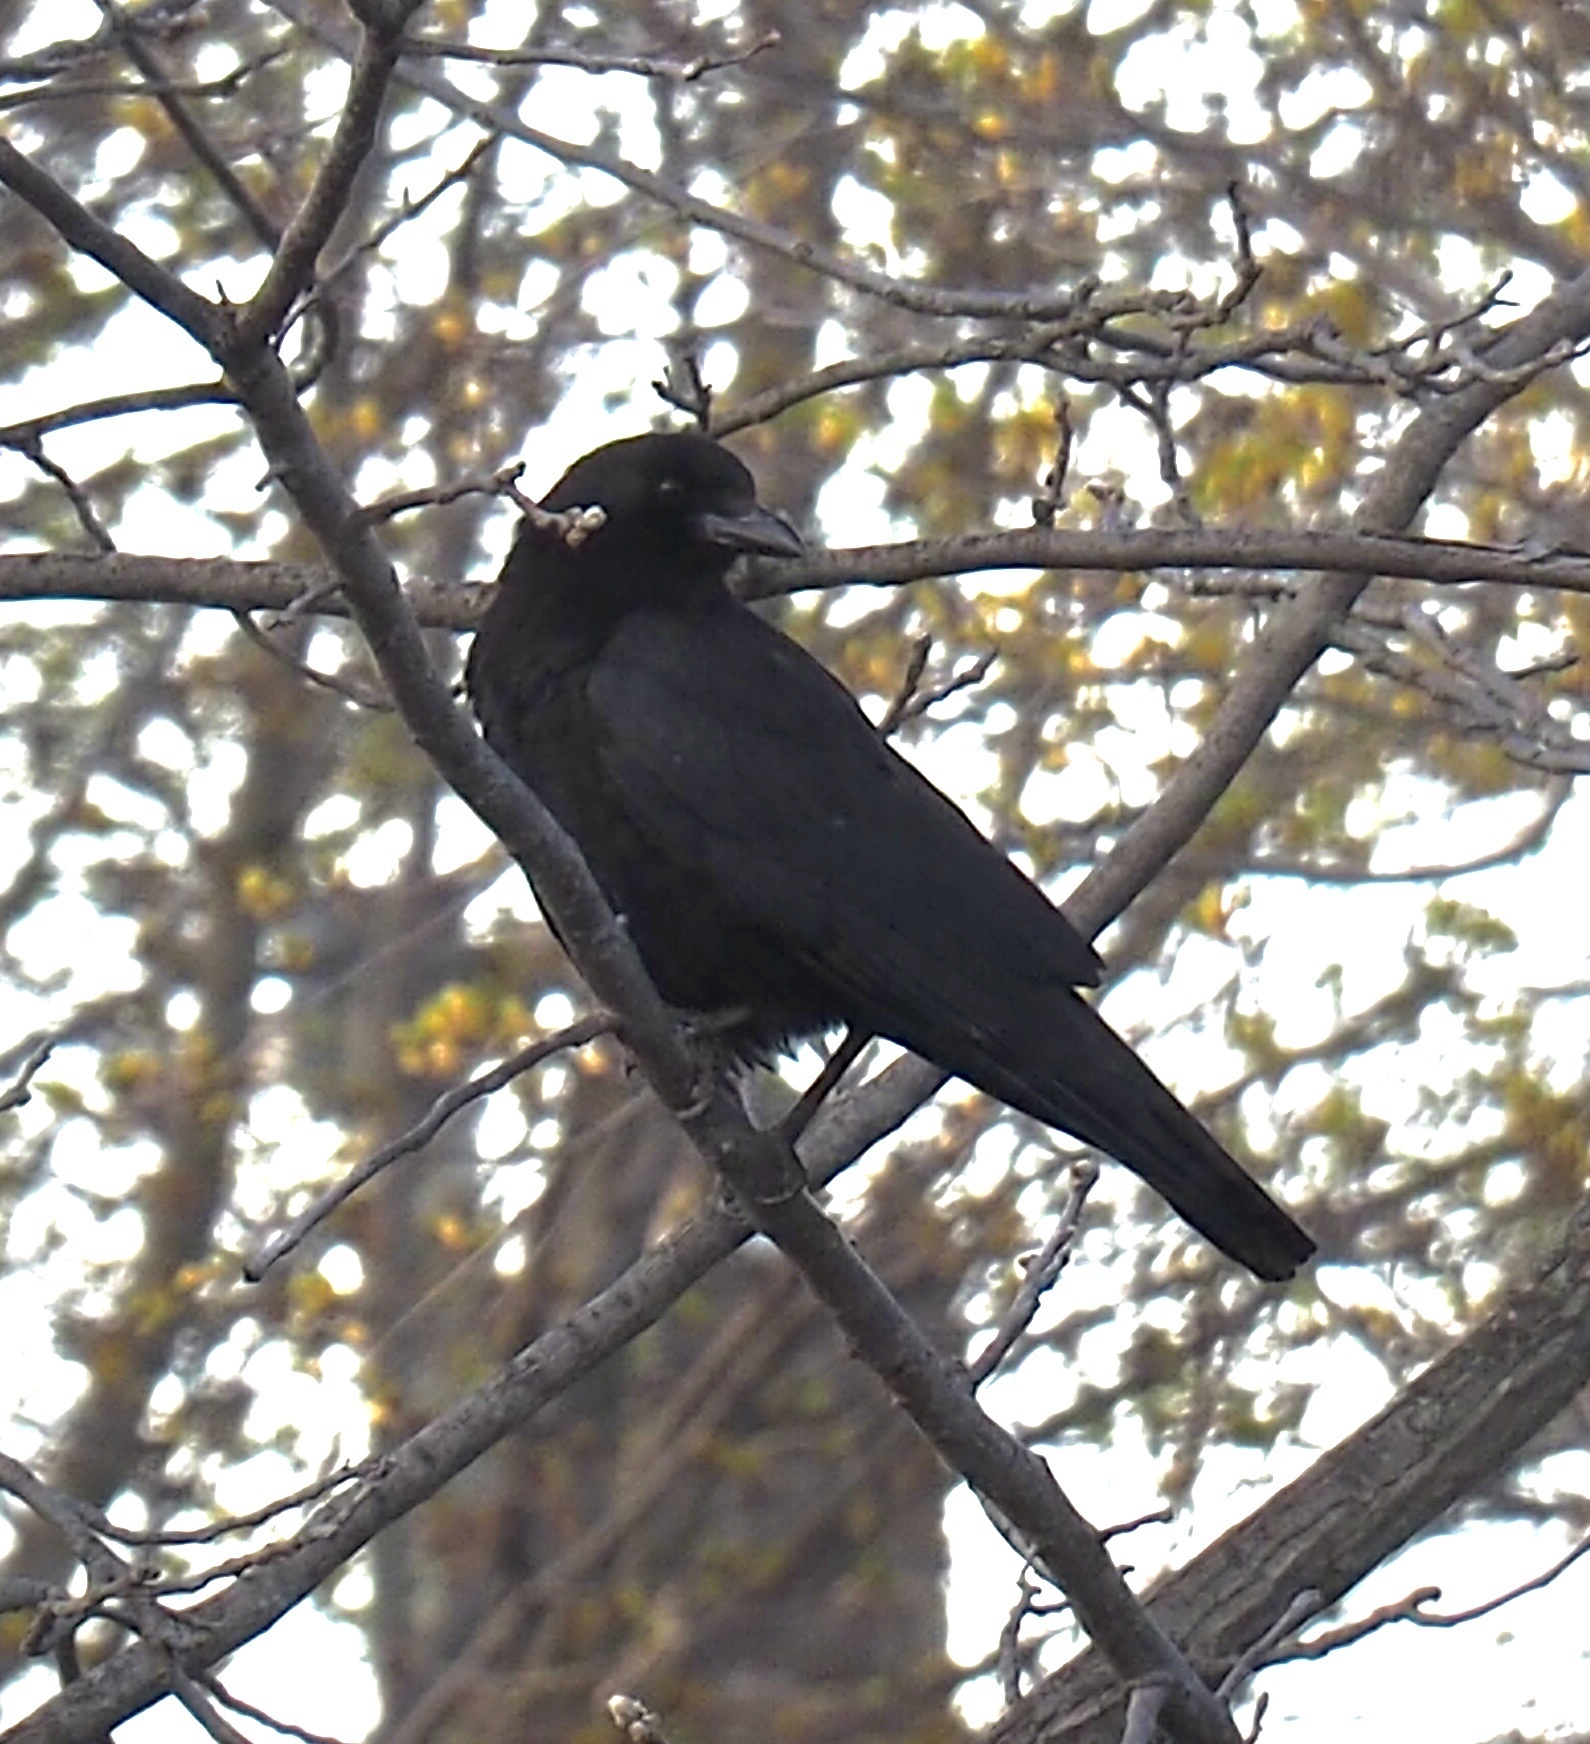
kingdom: Animalia
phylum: Chordata
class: Aves
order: Passeriformes
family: Corvidae
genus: Corvus
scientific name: Corvus brachyrhynchos
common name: American crow
